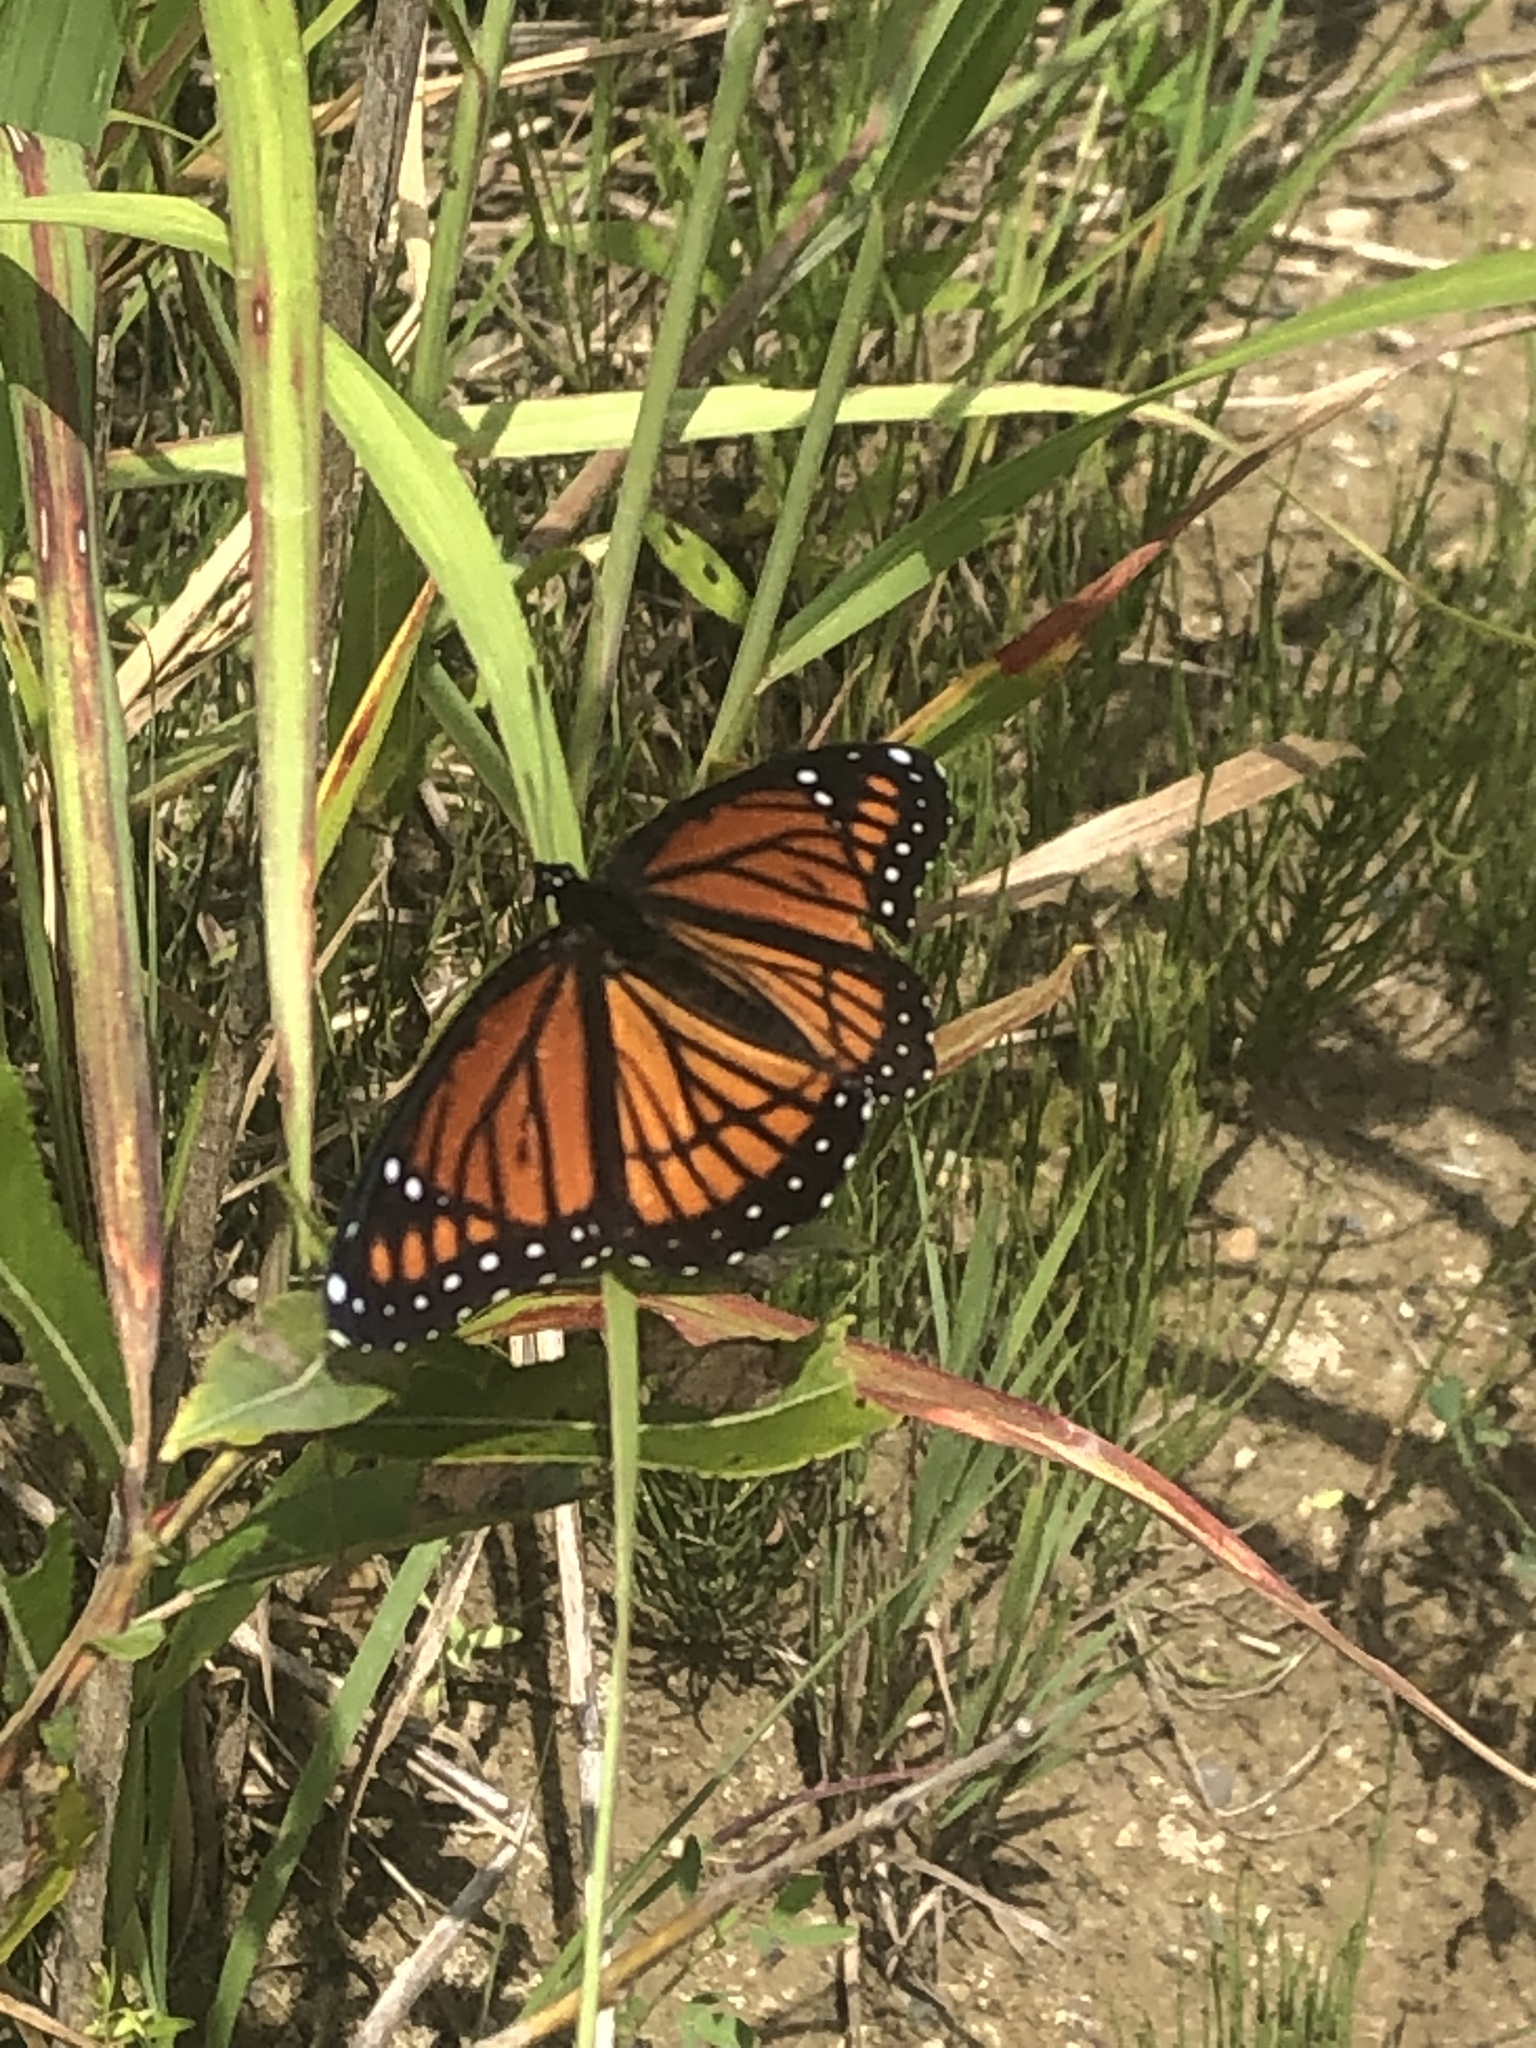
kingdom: Animalia
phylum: Arthropoda
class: Insecta
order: Lepidoptera
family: Nymphalidae
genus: Limenitis
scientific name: Limenitis archippus
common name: Viceroy
